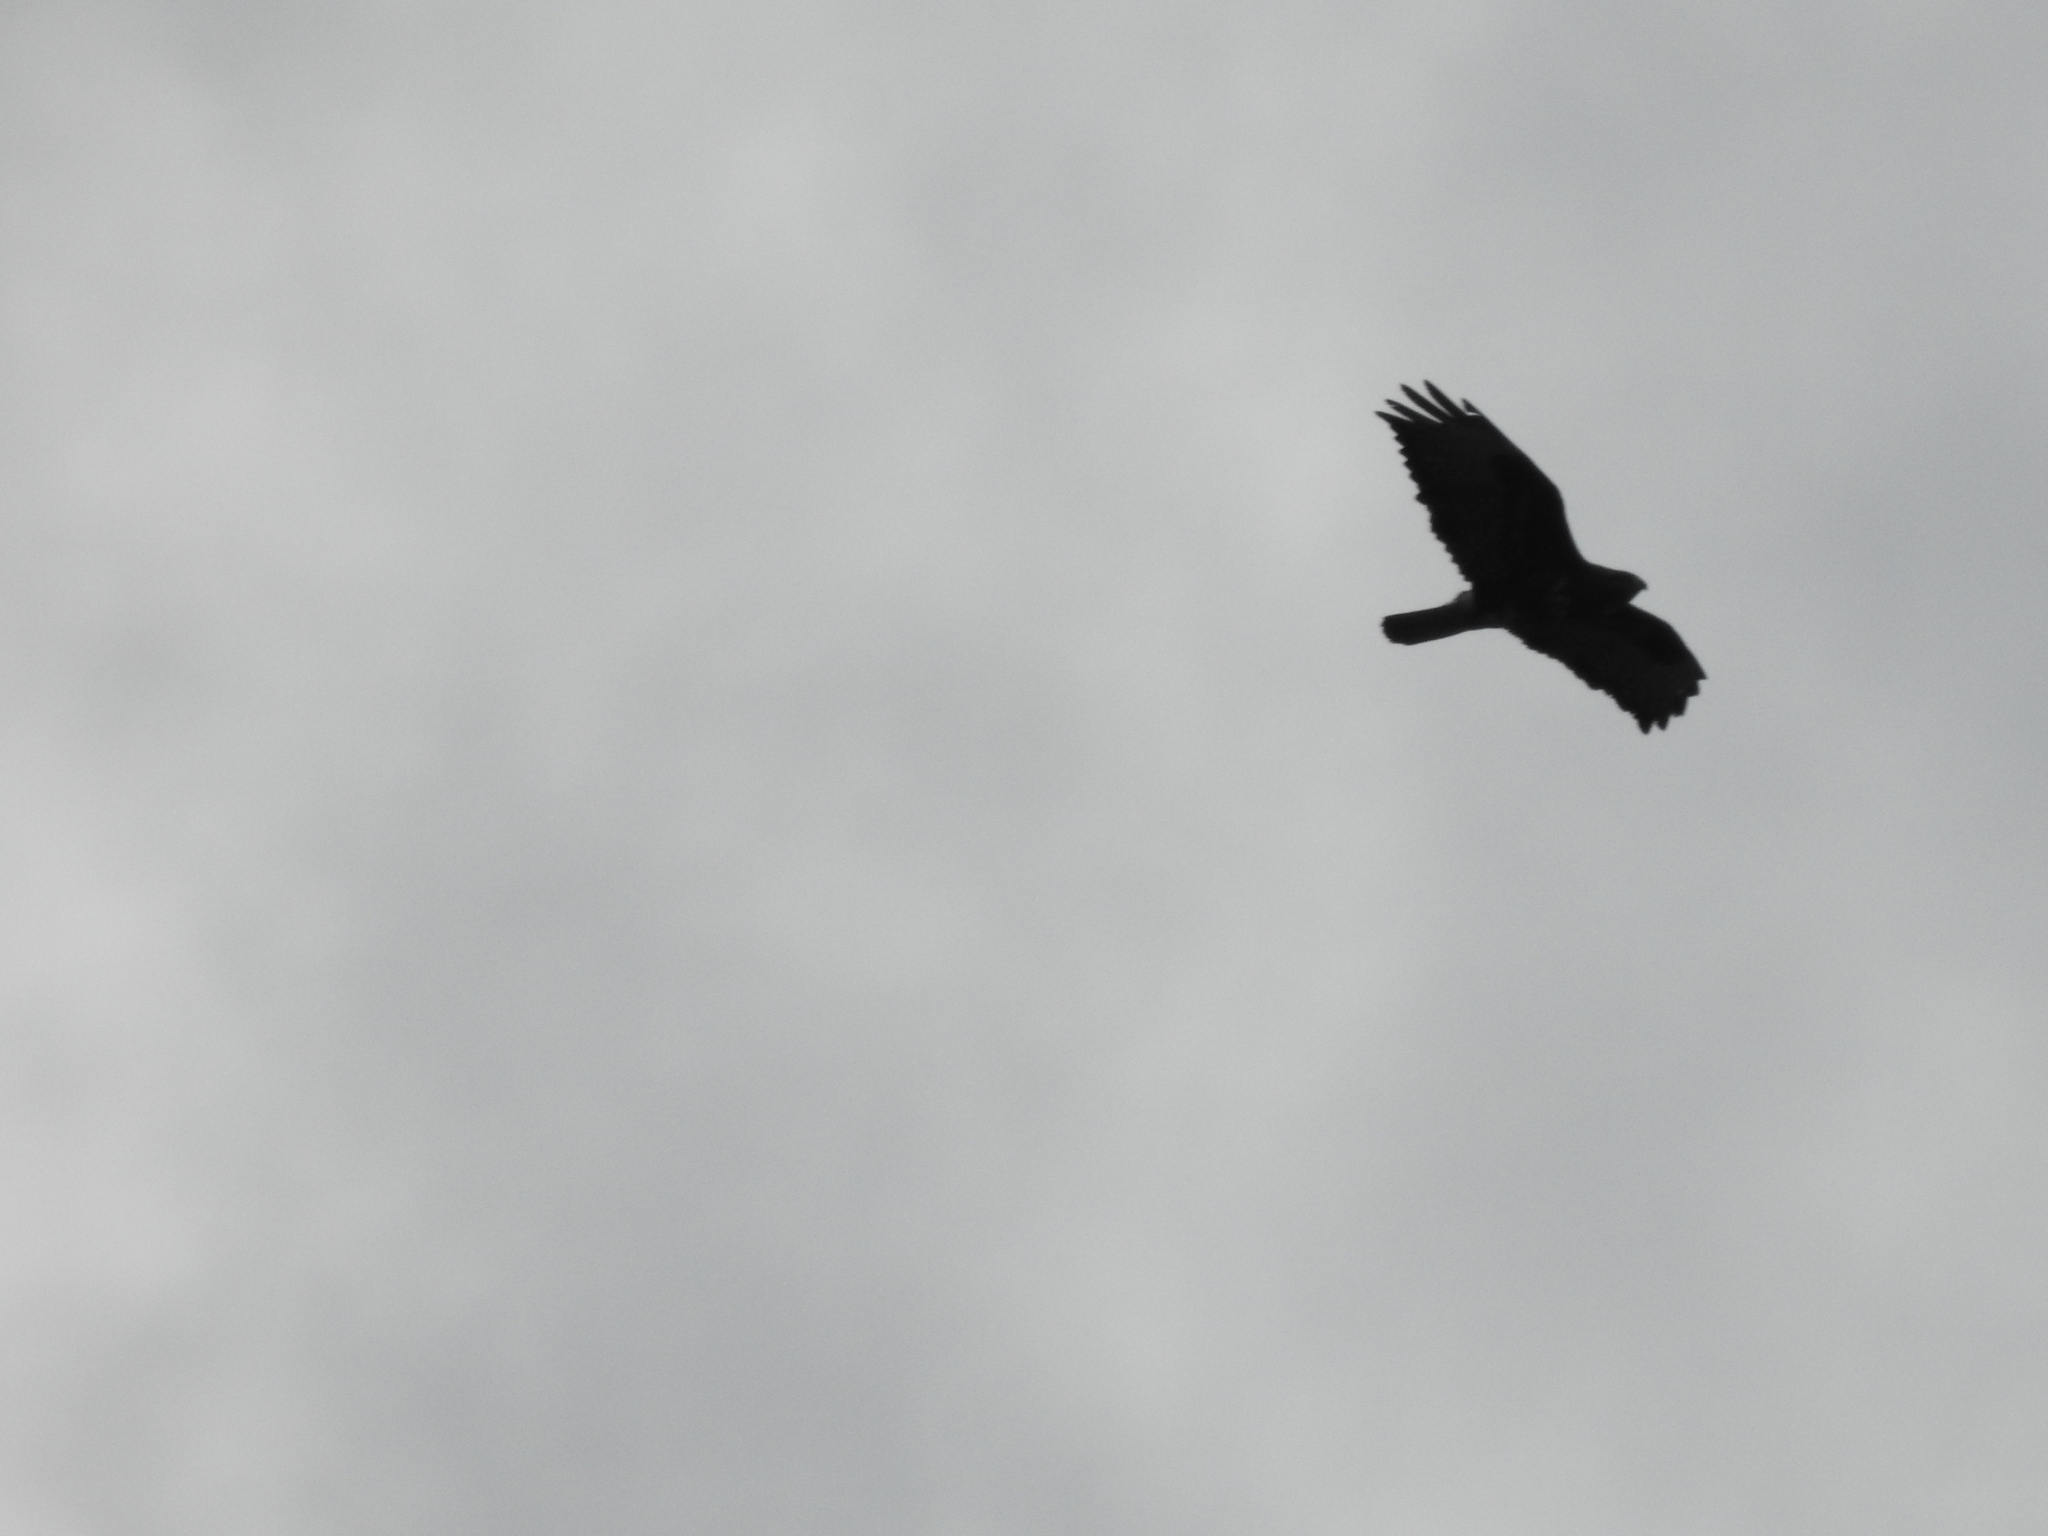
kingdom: Animalia
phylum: Chordata
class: Aves
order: Accipitriformes
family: Accipitridae
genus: Buteo
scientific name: Buteo buteo
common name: Common buzzard
